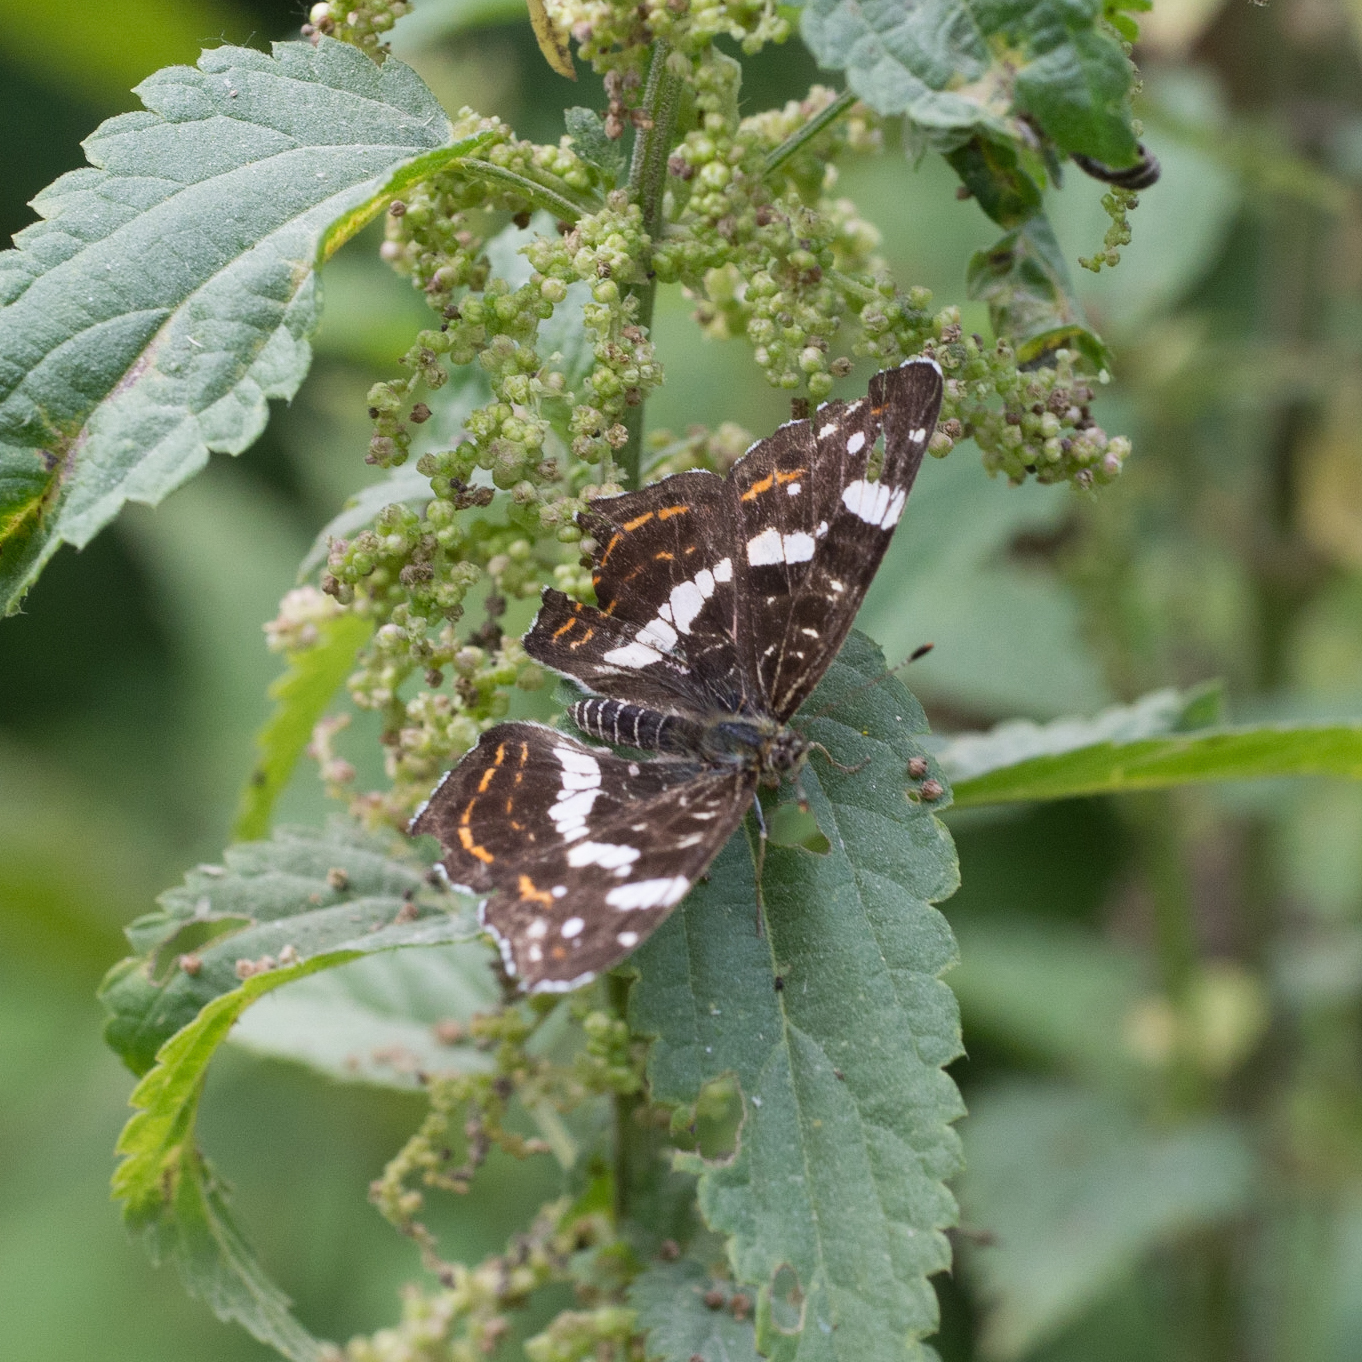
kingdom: Animalia
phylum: Arthropoda
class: Insecta
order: Lepidoptera
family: Nymphalidae
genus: Araschnia
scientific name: Araschnia levana
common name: Map butterfly
